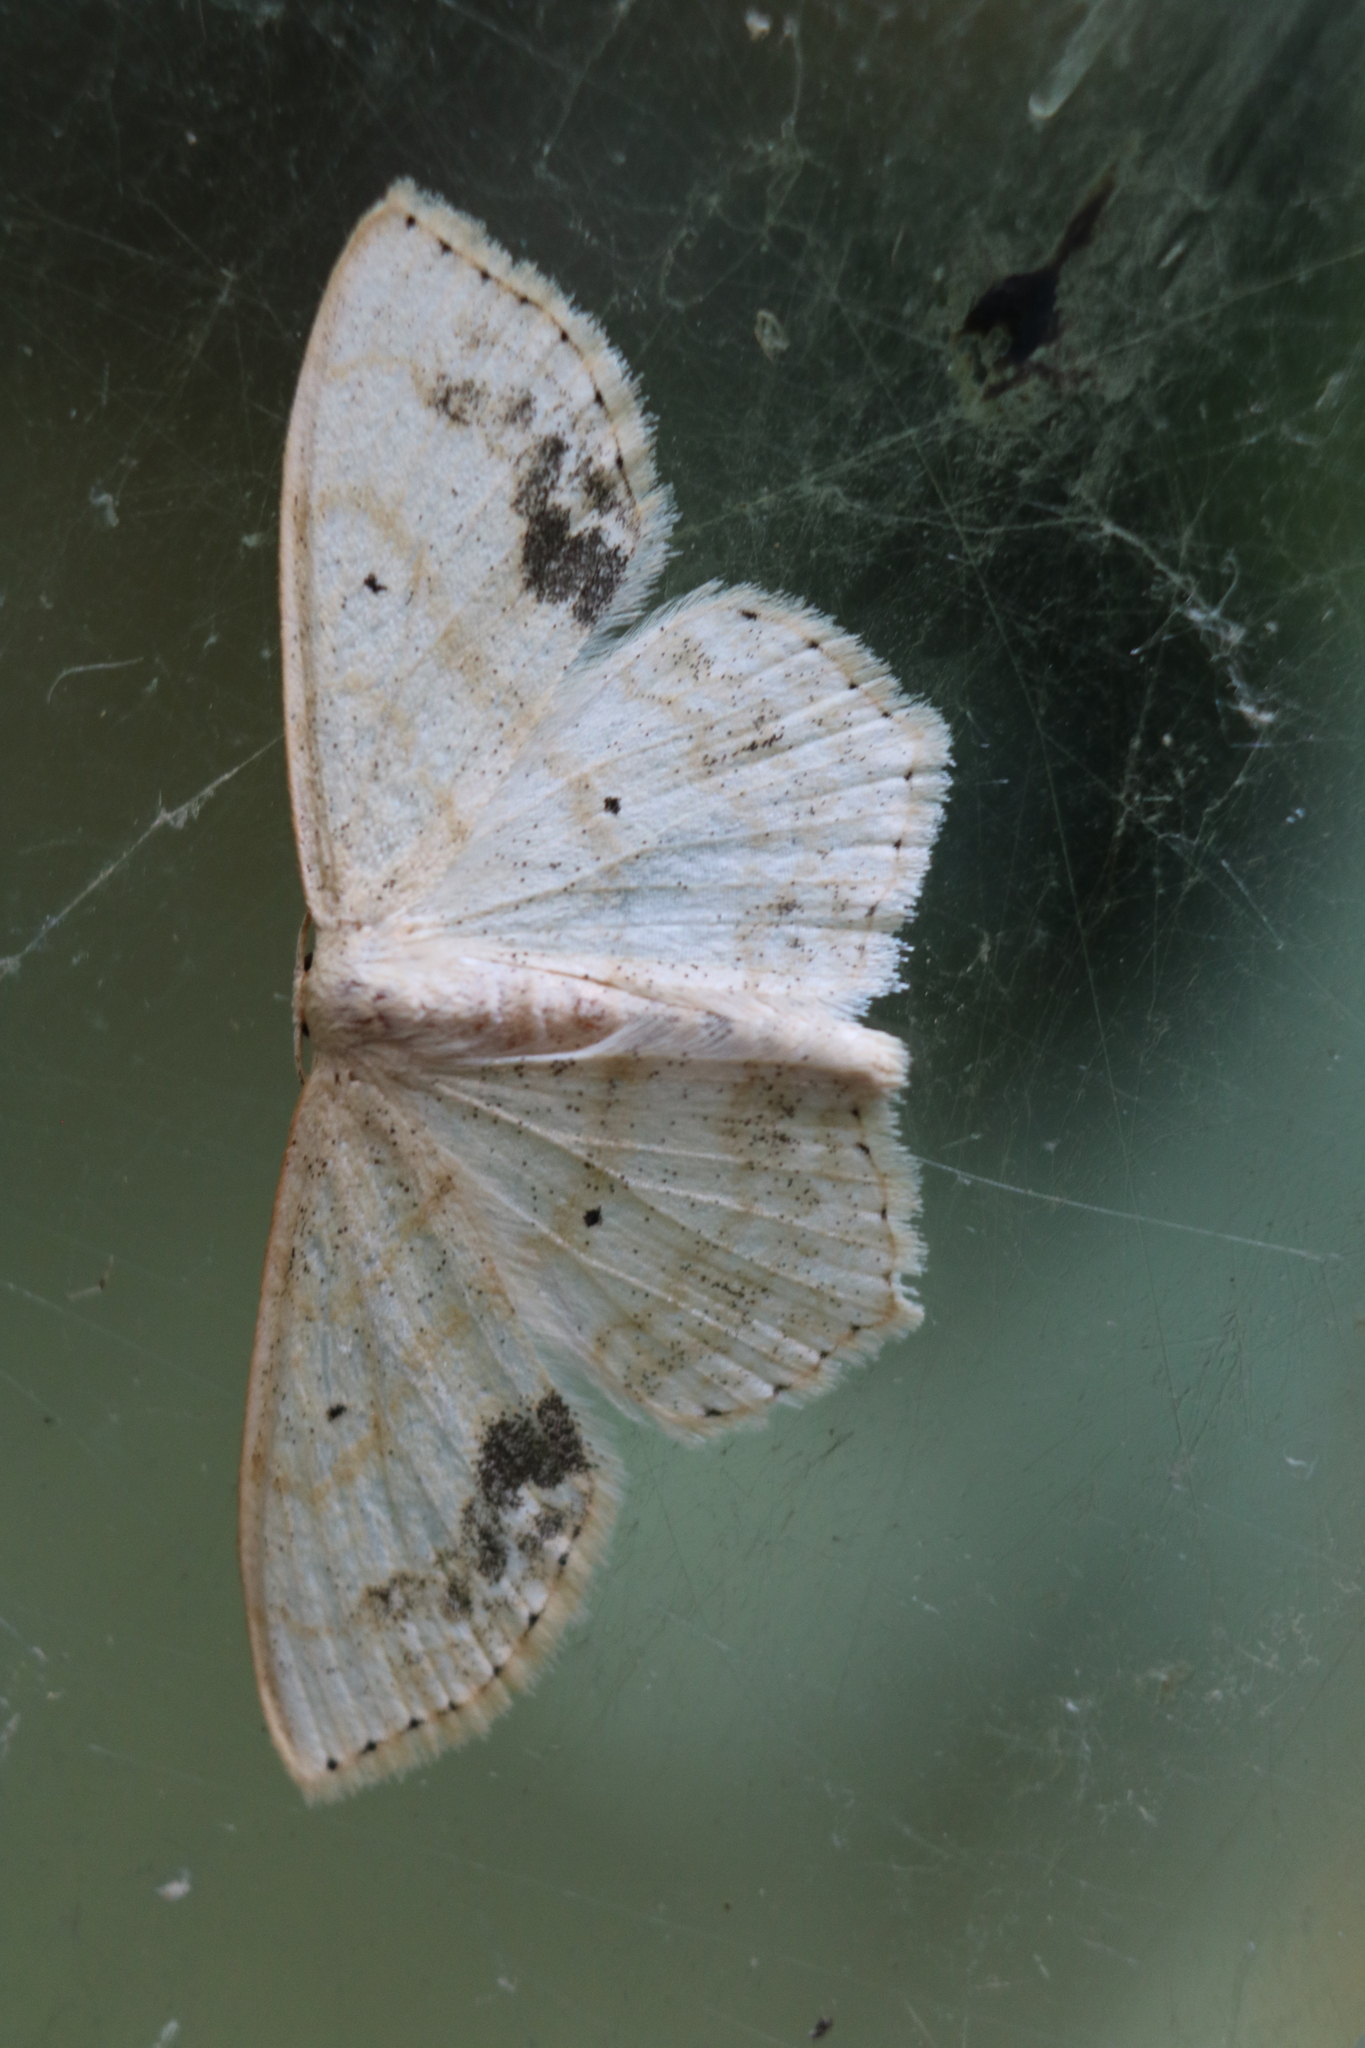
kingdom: Animalia
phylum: Arthropoda
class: Insecta
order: Lepidoptera
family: Geometridae
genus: Scopula
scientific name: Scopula limboundata
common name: Large lace border
